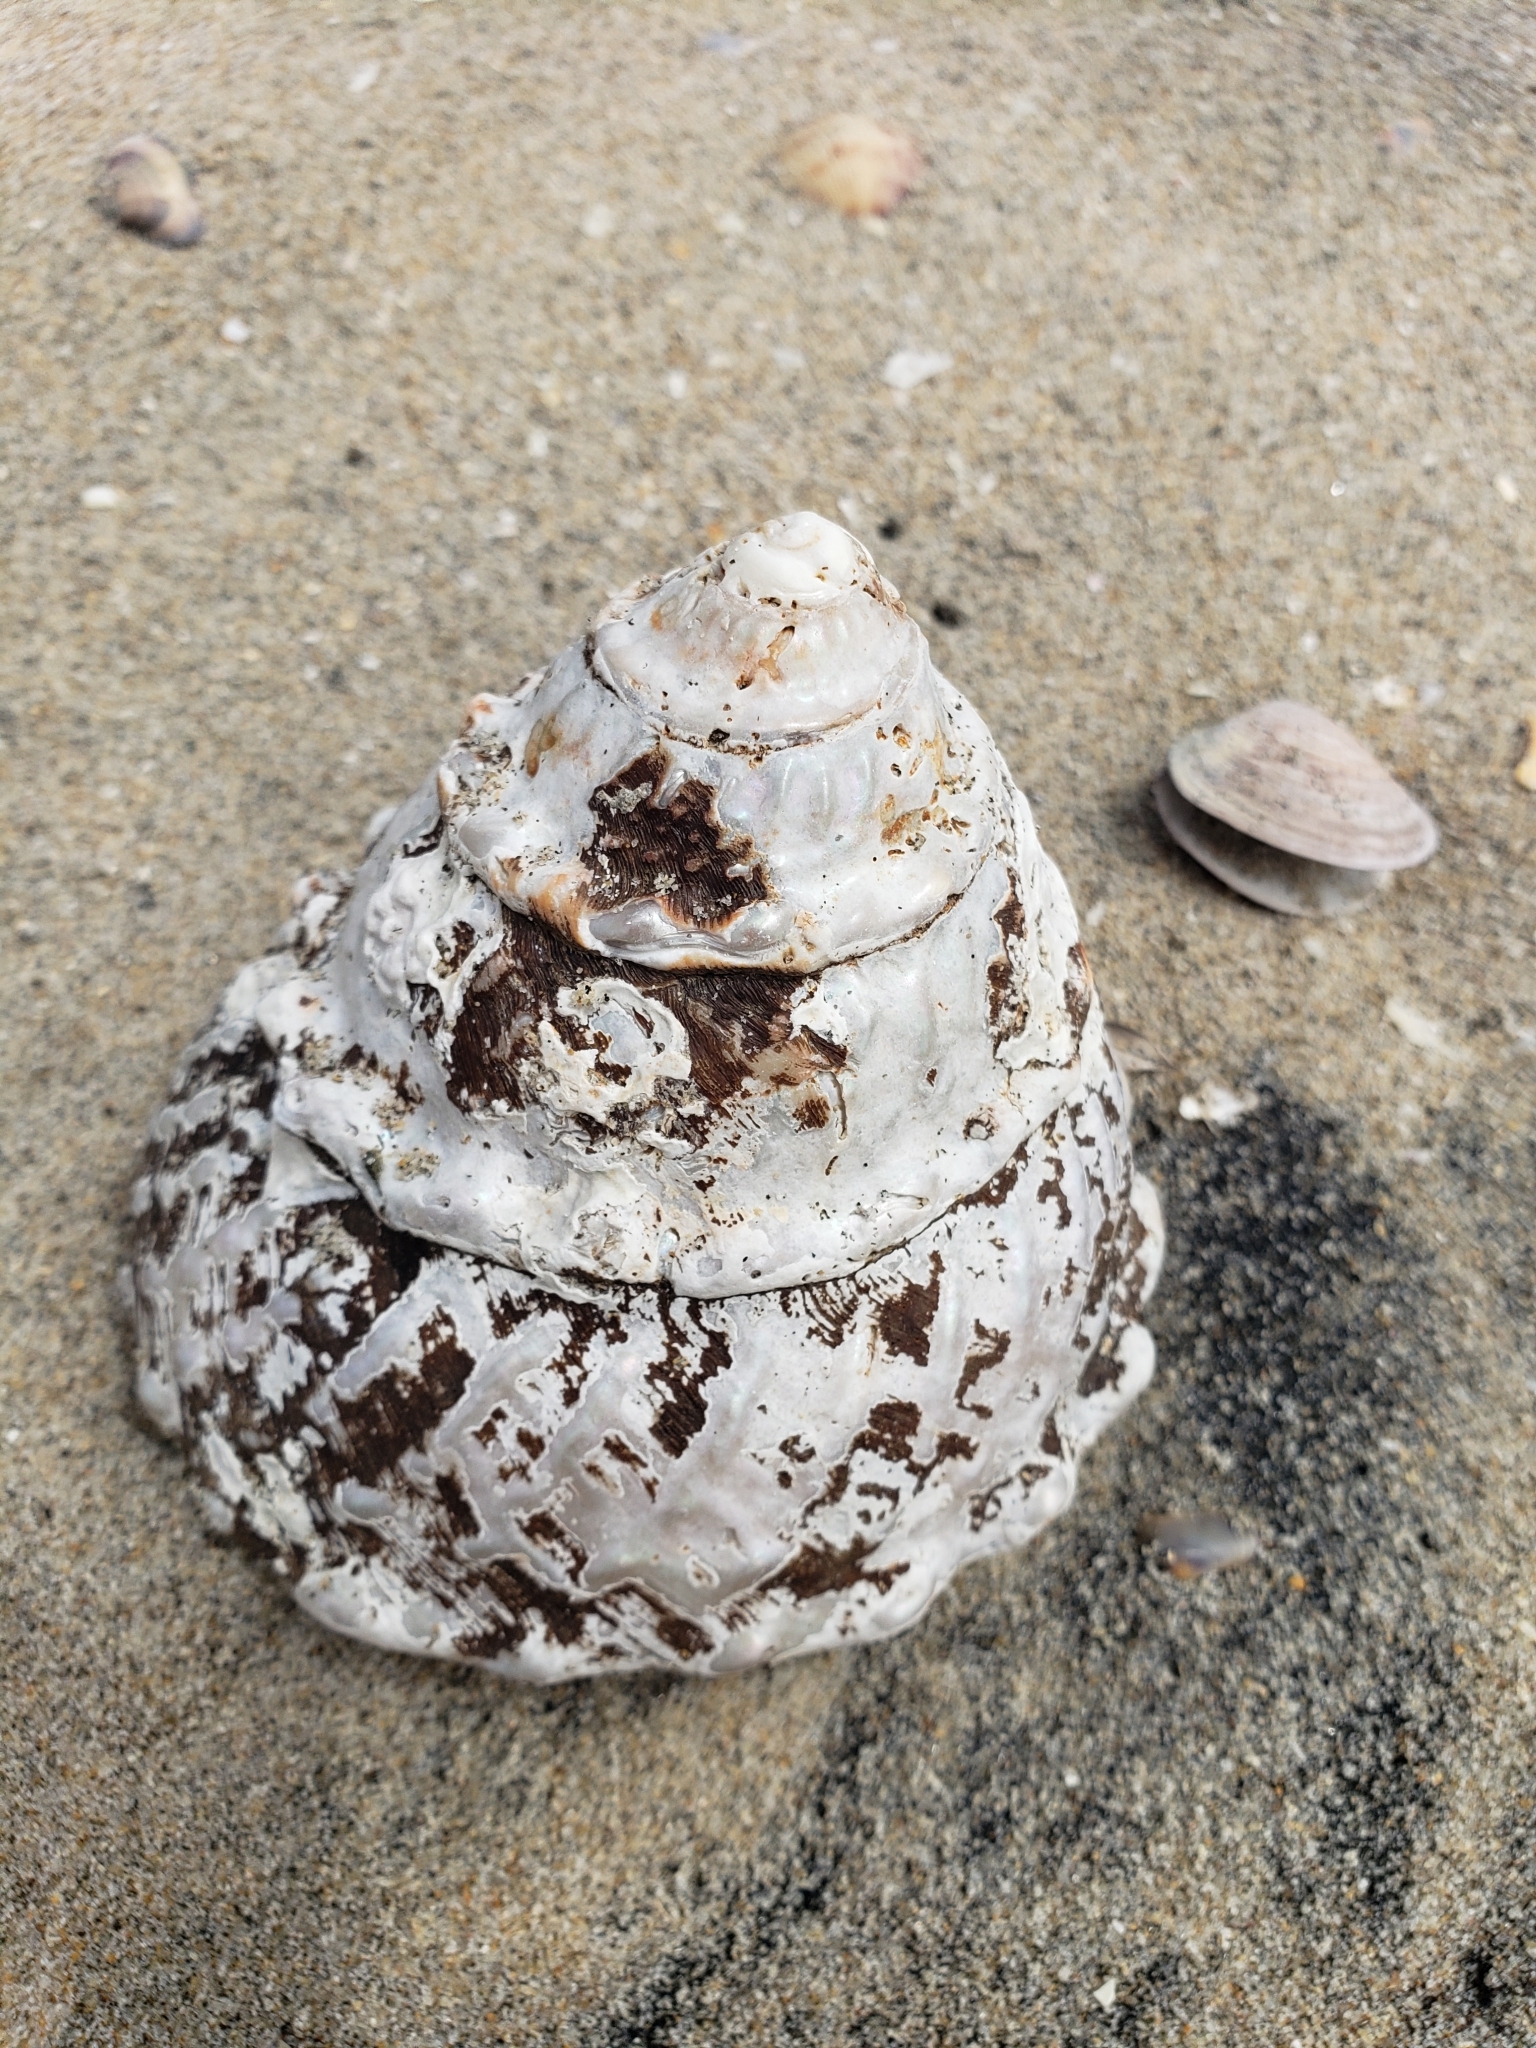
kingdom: Animalia
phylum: Mollusca
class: Gastropoda
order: Trochida
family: Turbinidae
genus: Megastraea
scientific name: Megastraea undosa
